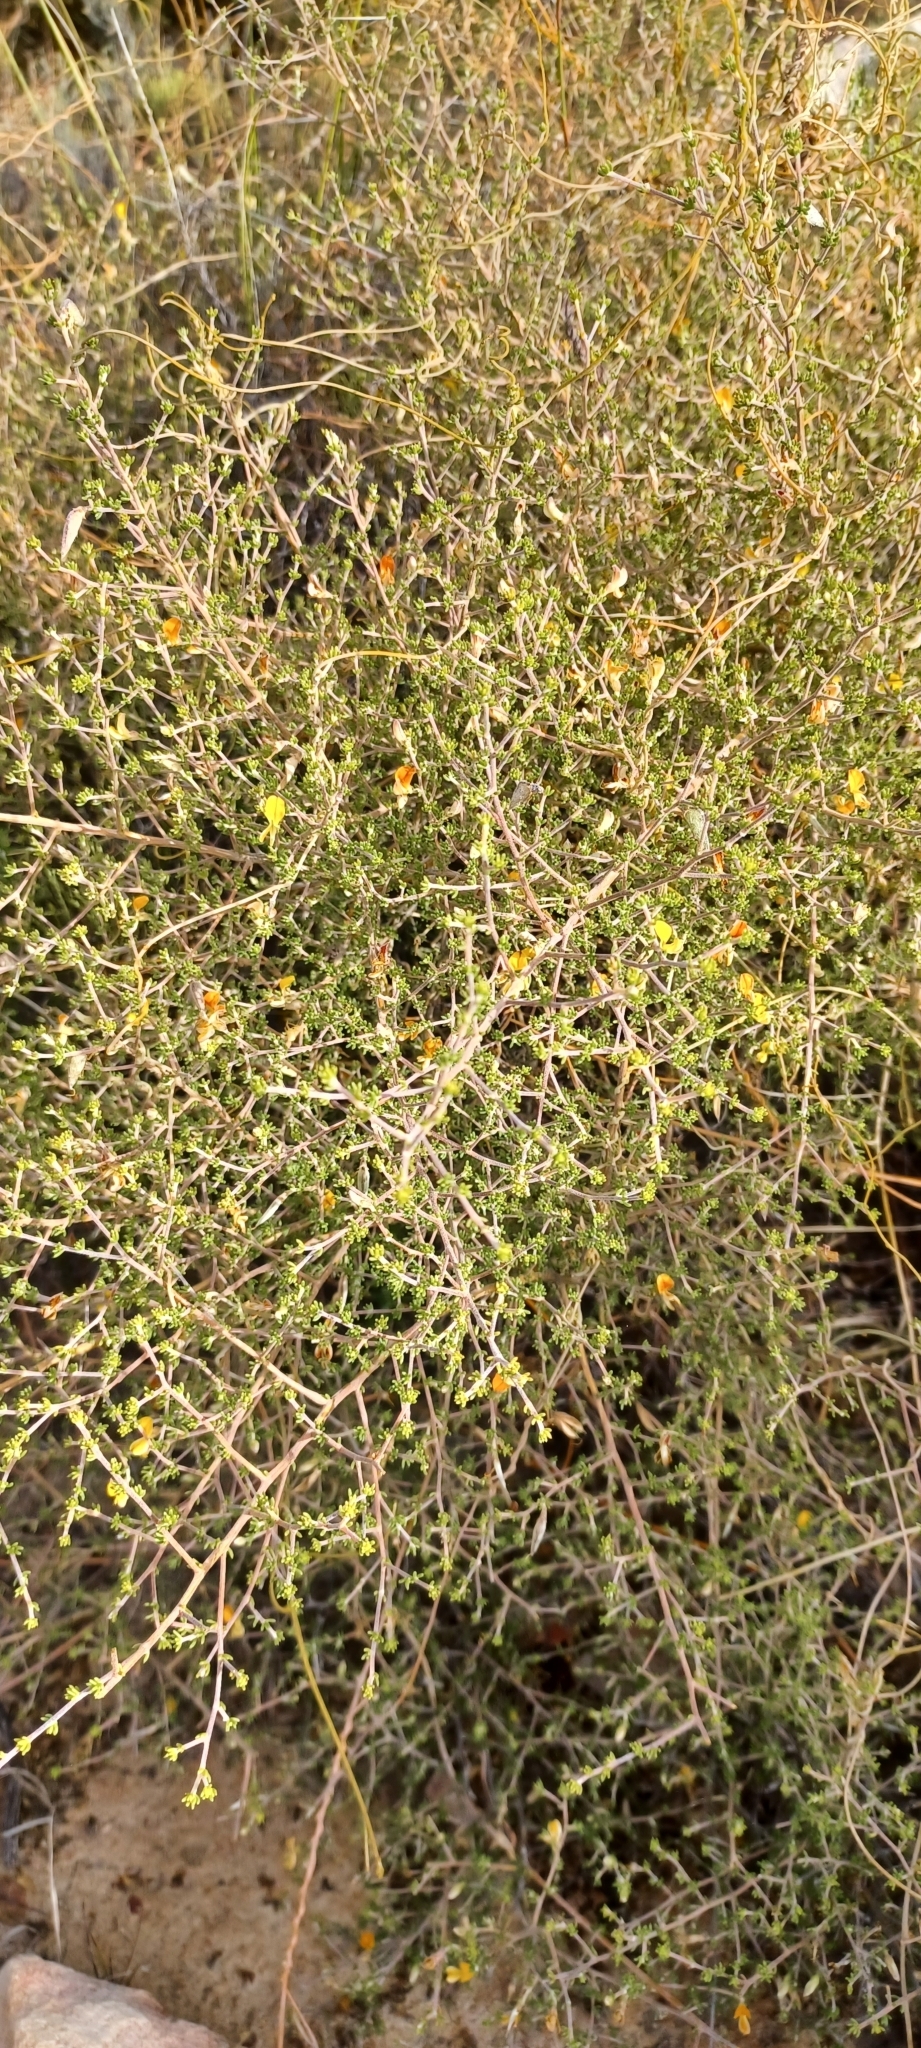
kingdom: Plantae
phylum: Tracheophyta
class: Magnoliopsida
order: Fabales
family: Fabaceae
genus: Aspalathus
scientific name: Aspalathus pilantha
